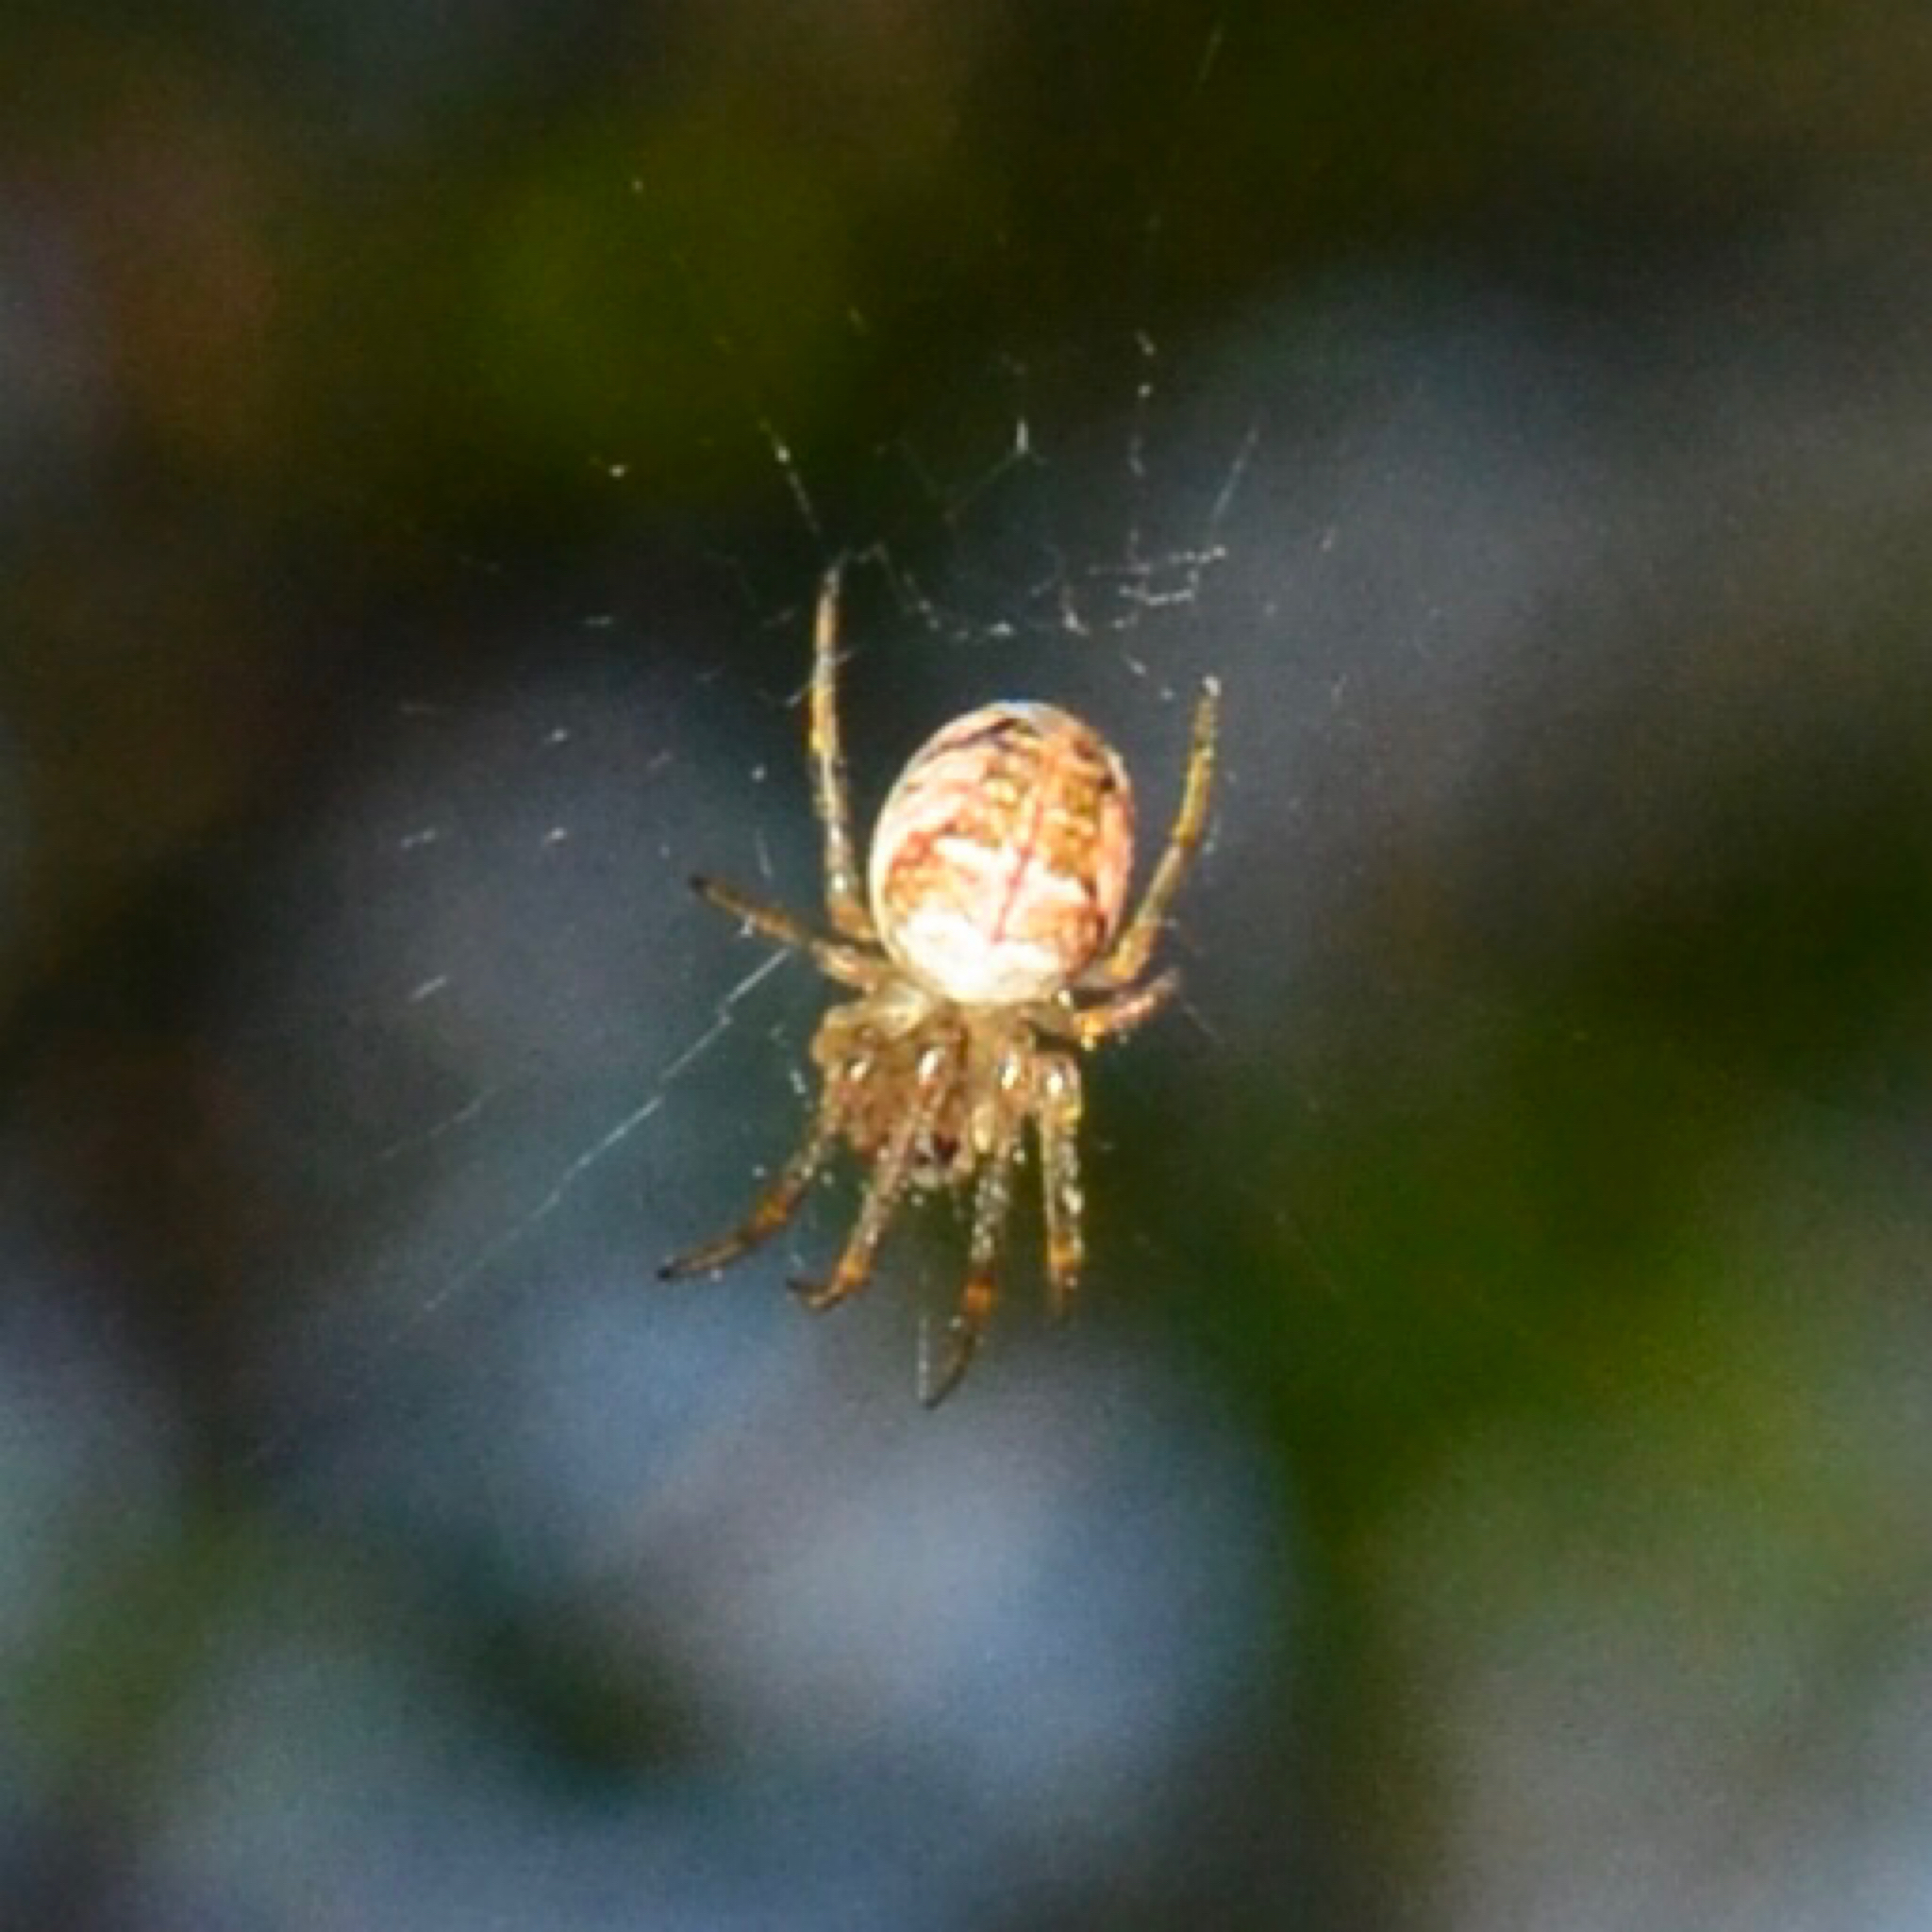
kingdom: Animalia
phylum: Arthropoda
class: Arachnida
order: Araneae
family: Tetragnathidae
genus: Metellina
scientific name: Metellina
